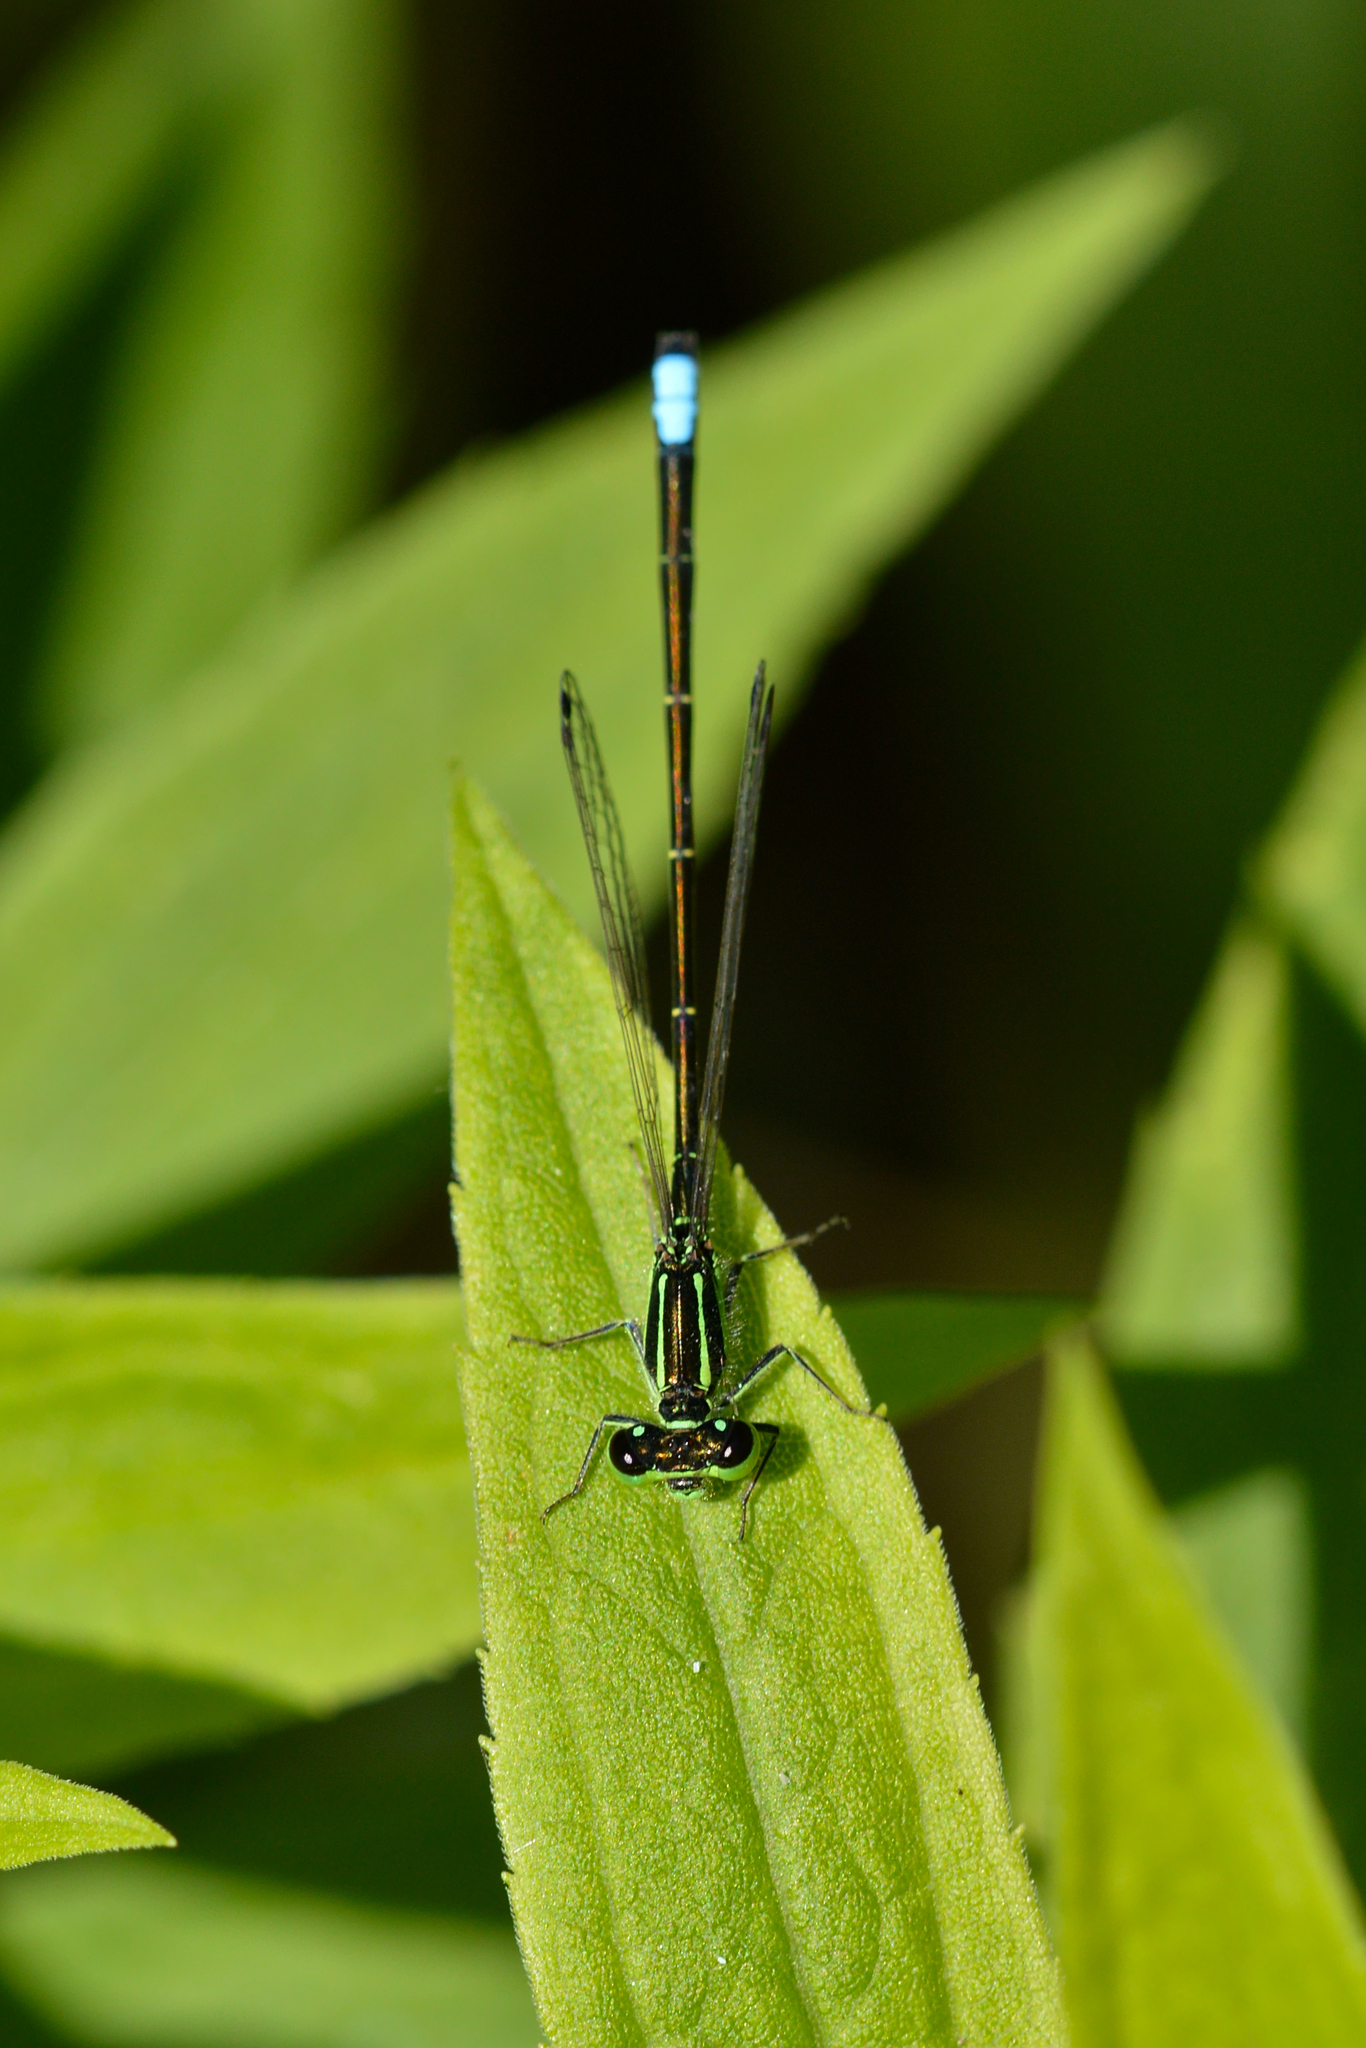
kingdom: Animalia
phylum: Arthropoda
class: Insecta
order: Odonata
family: Coenagrionidae
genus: Ischnura
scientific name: Ischnura verticalis
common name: Eastern forktail
